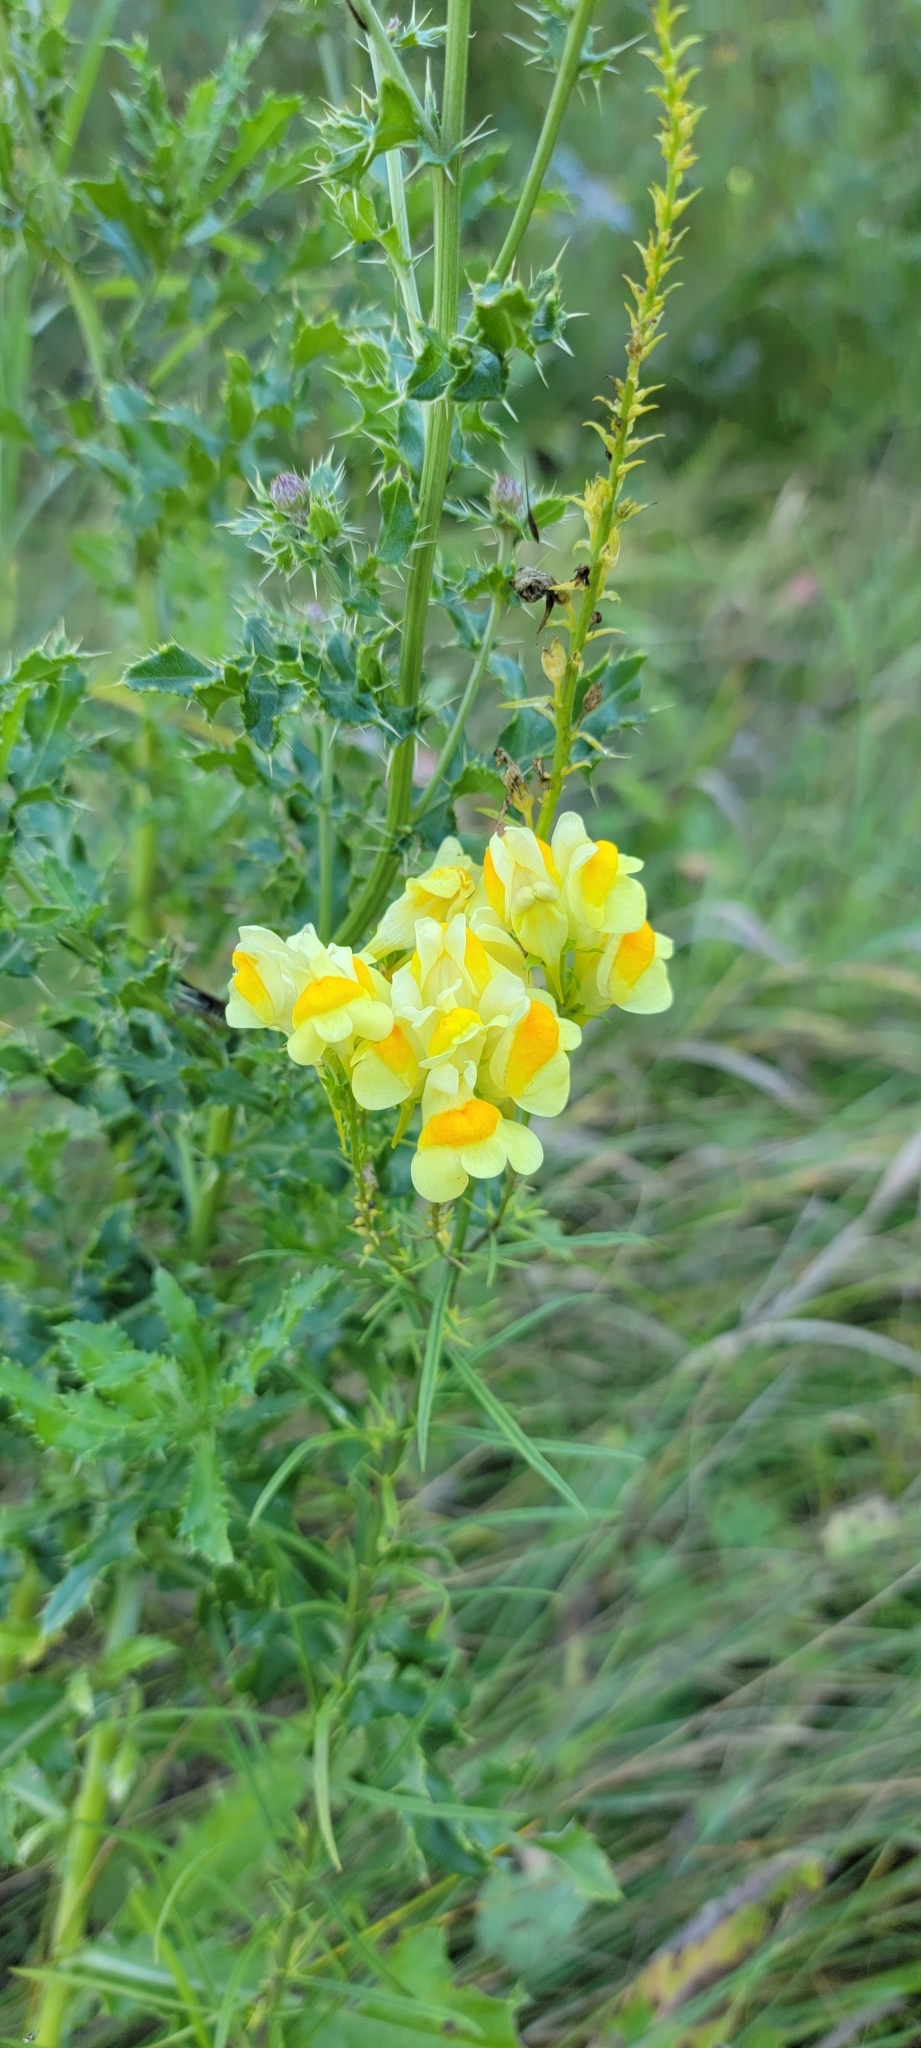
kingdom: Plantae
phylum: Tracheophyta
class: Magnoliopsida
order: Lamiales
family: Plantaginaceae
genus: Linaria
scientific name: Linaria vulgaris
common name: Butter and eggs
